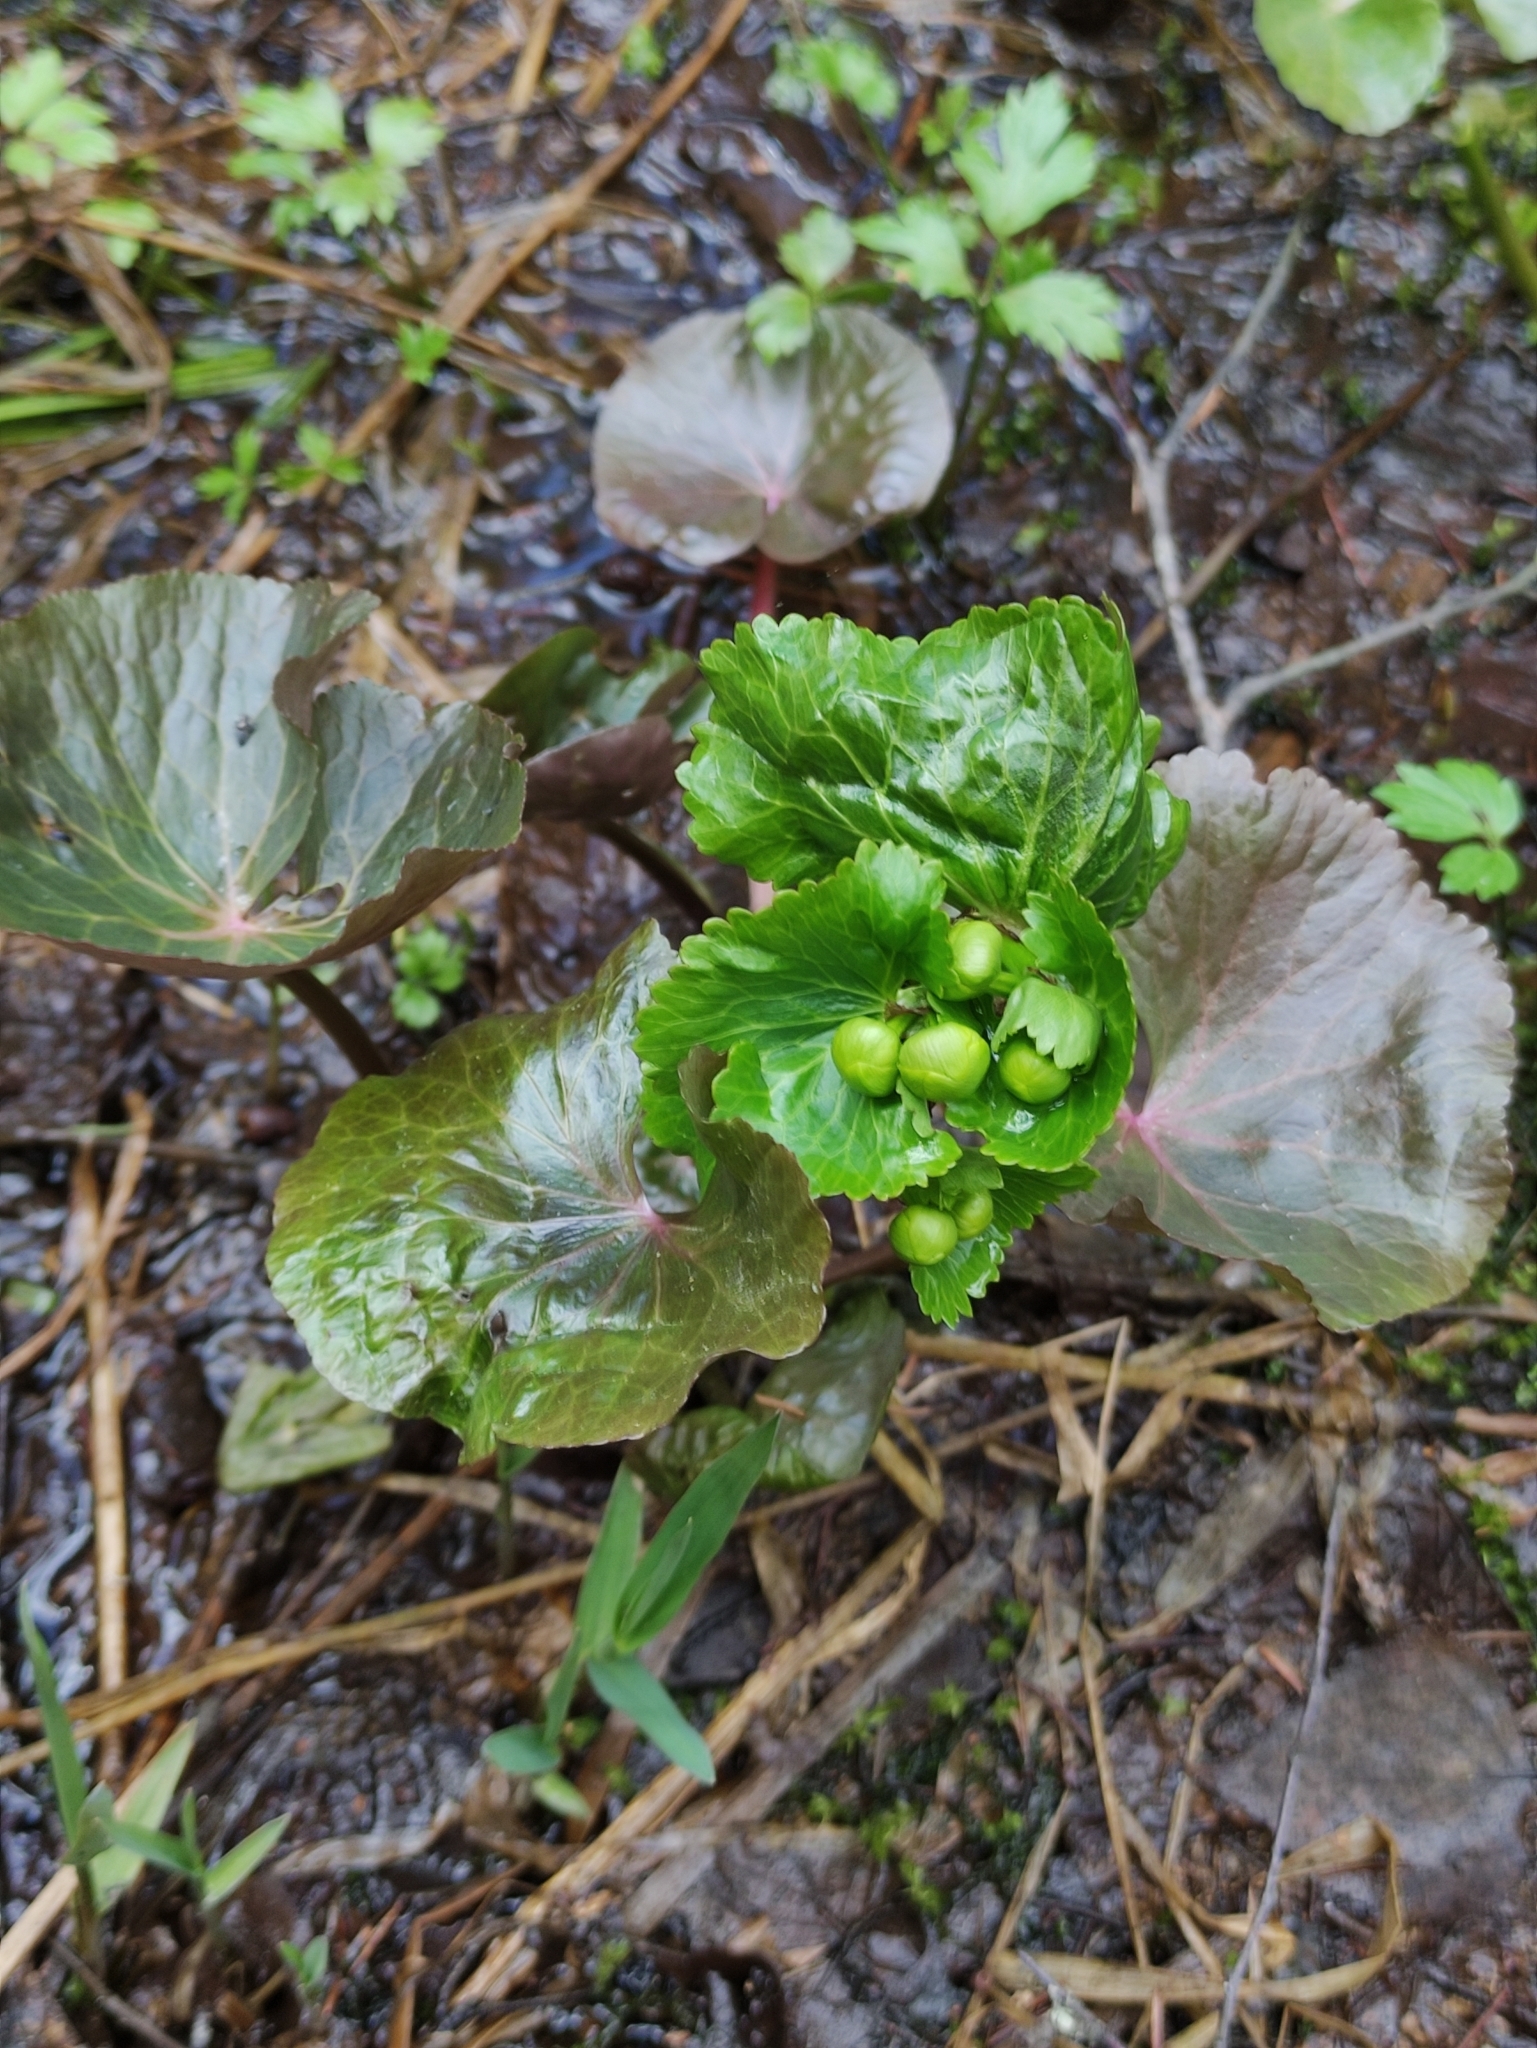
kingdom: Plantae
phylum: Tracheophyta
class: Magnoliopsida
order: Ranunculales
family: Ranunculaceae
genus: Caltha
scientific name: Caltha palustris
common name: Marsh marigold
